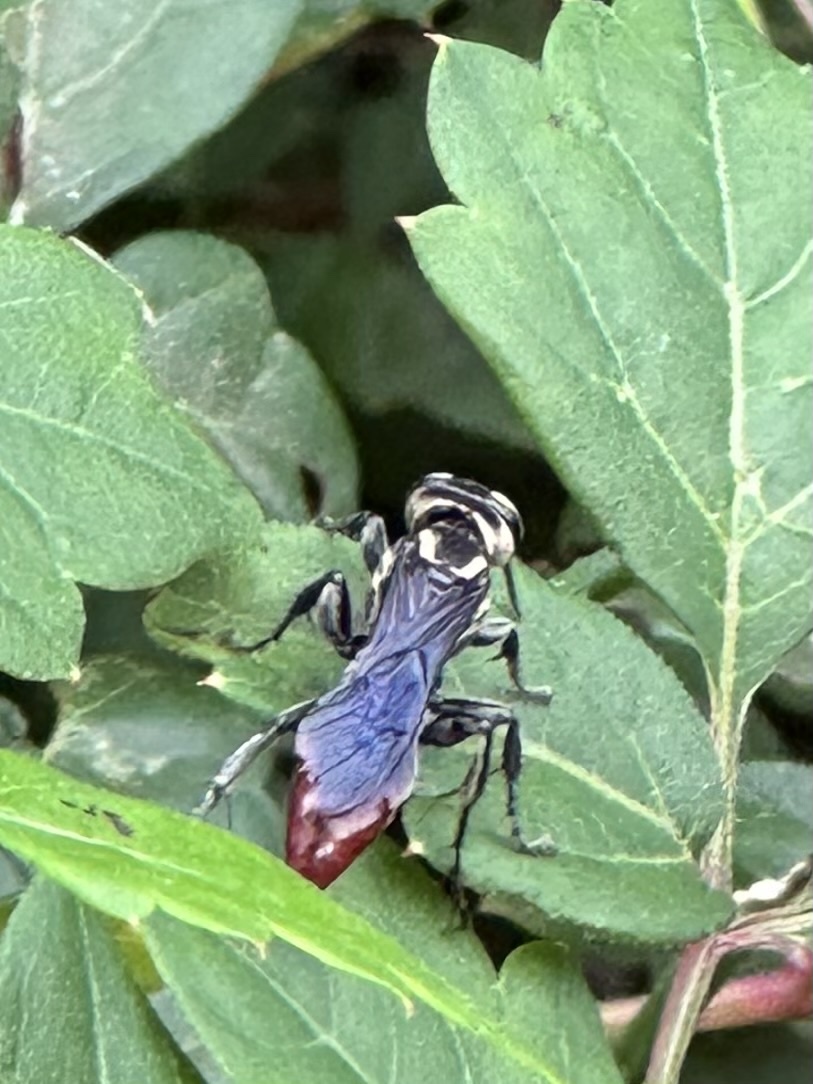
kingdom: Animalia
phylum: Arthropoda
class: Insecta
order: Hymenoptera
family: Crabronidae
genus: Larra
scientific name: Larra bicolor
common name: Wasp
